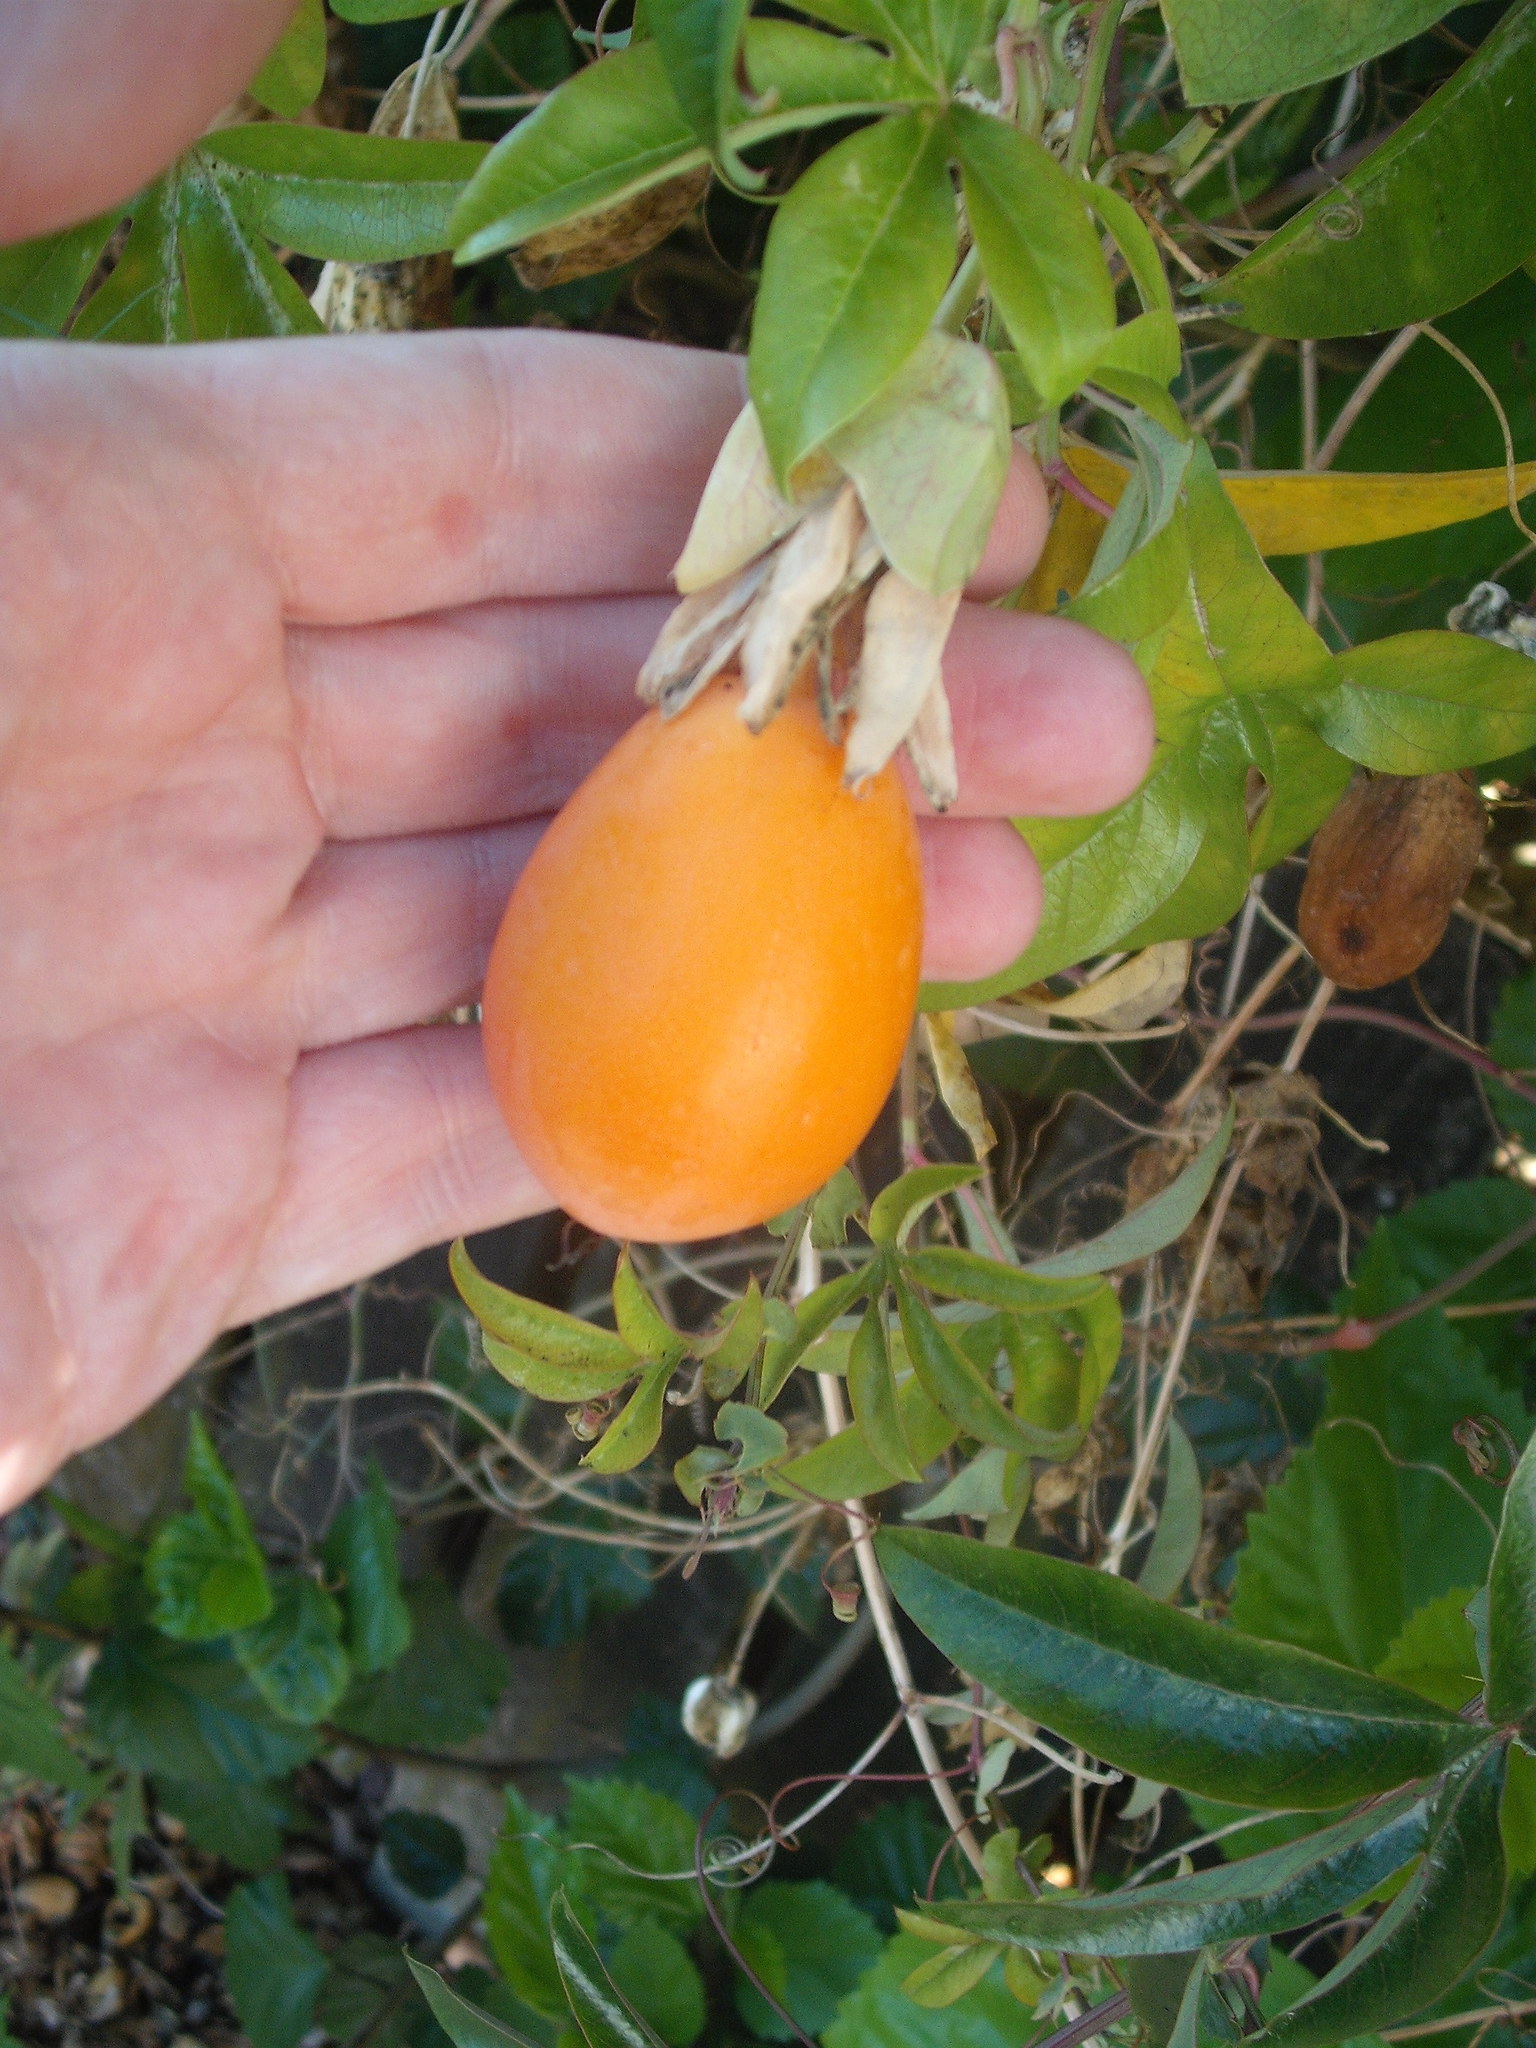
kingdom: Plantae
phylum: Tracheophyta
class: Magnoliopsida
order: Malpighiales
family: Passifloraceae
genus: Passiflora
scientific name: Passiflora caerulea
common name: Blue passionflower
